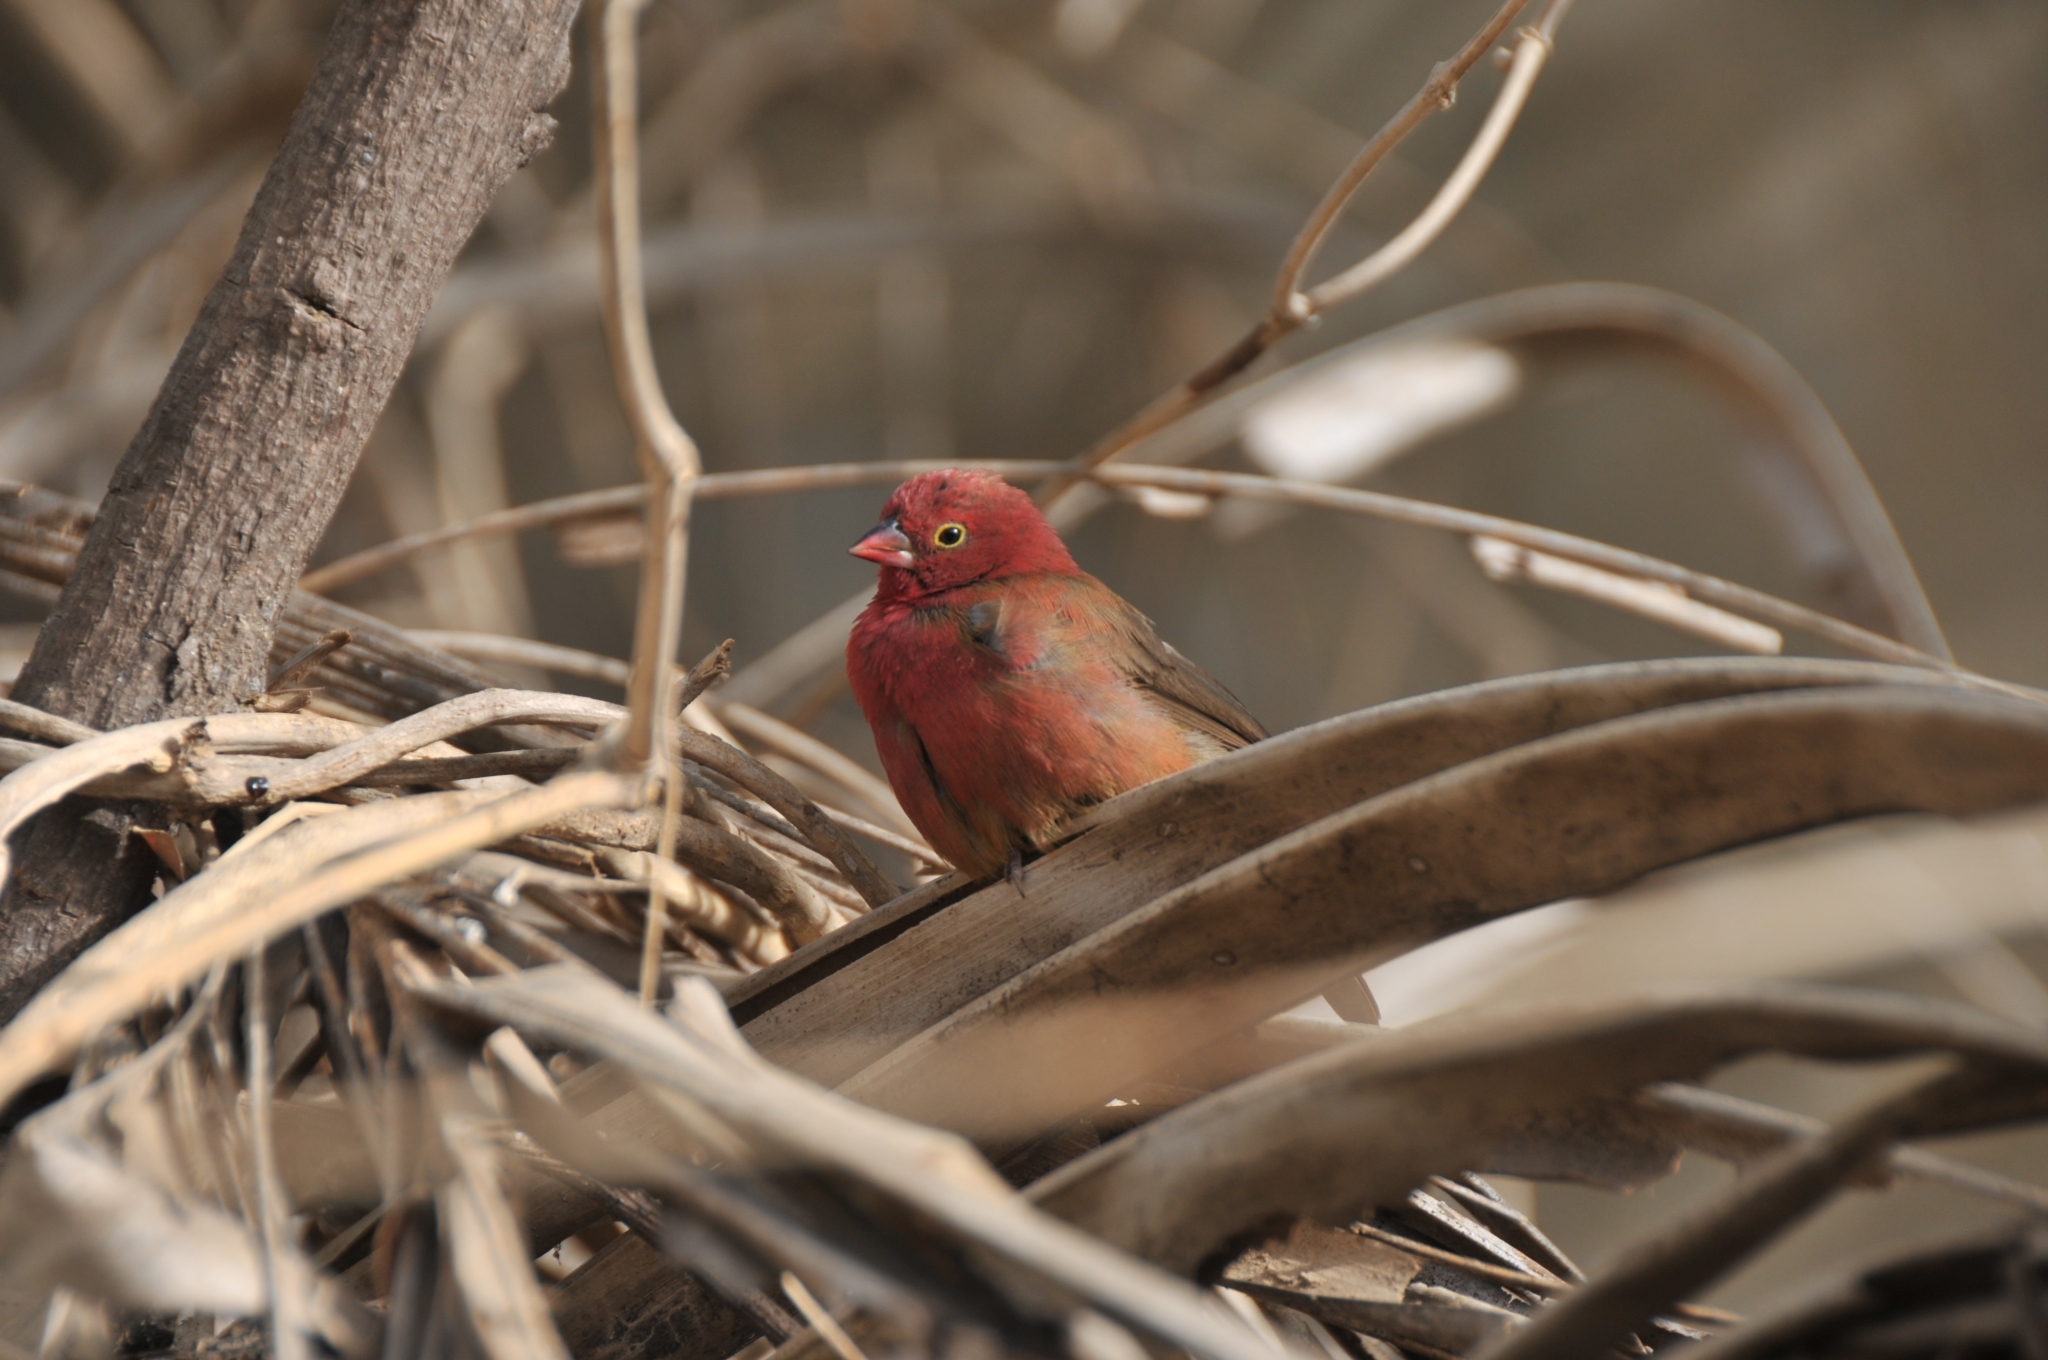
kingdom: Animalia
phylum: Chordata
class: Aves
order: Passeriformes
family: Estrildidae
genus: Lagonosticta
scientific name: Lagonosticta senegala
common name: Red-billed firefinch
